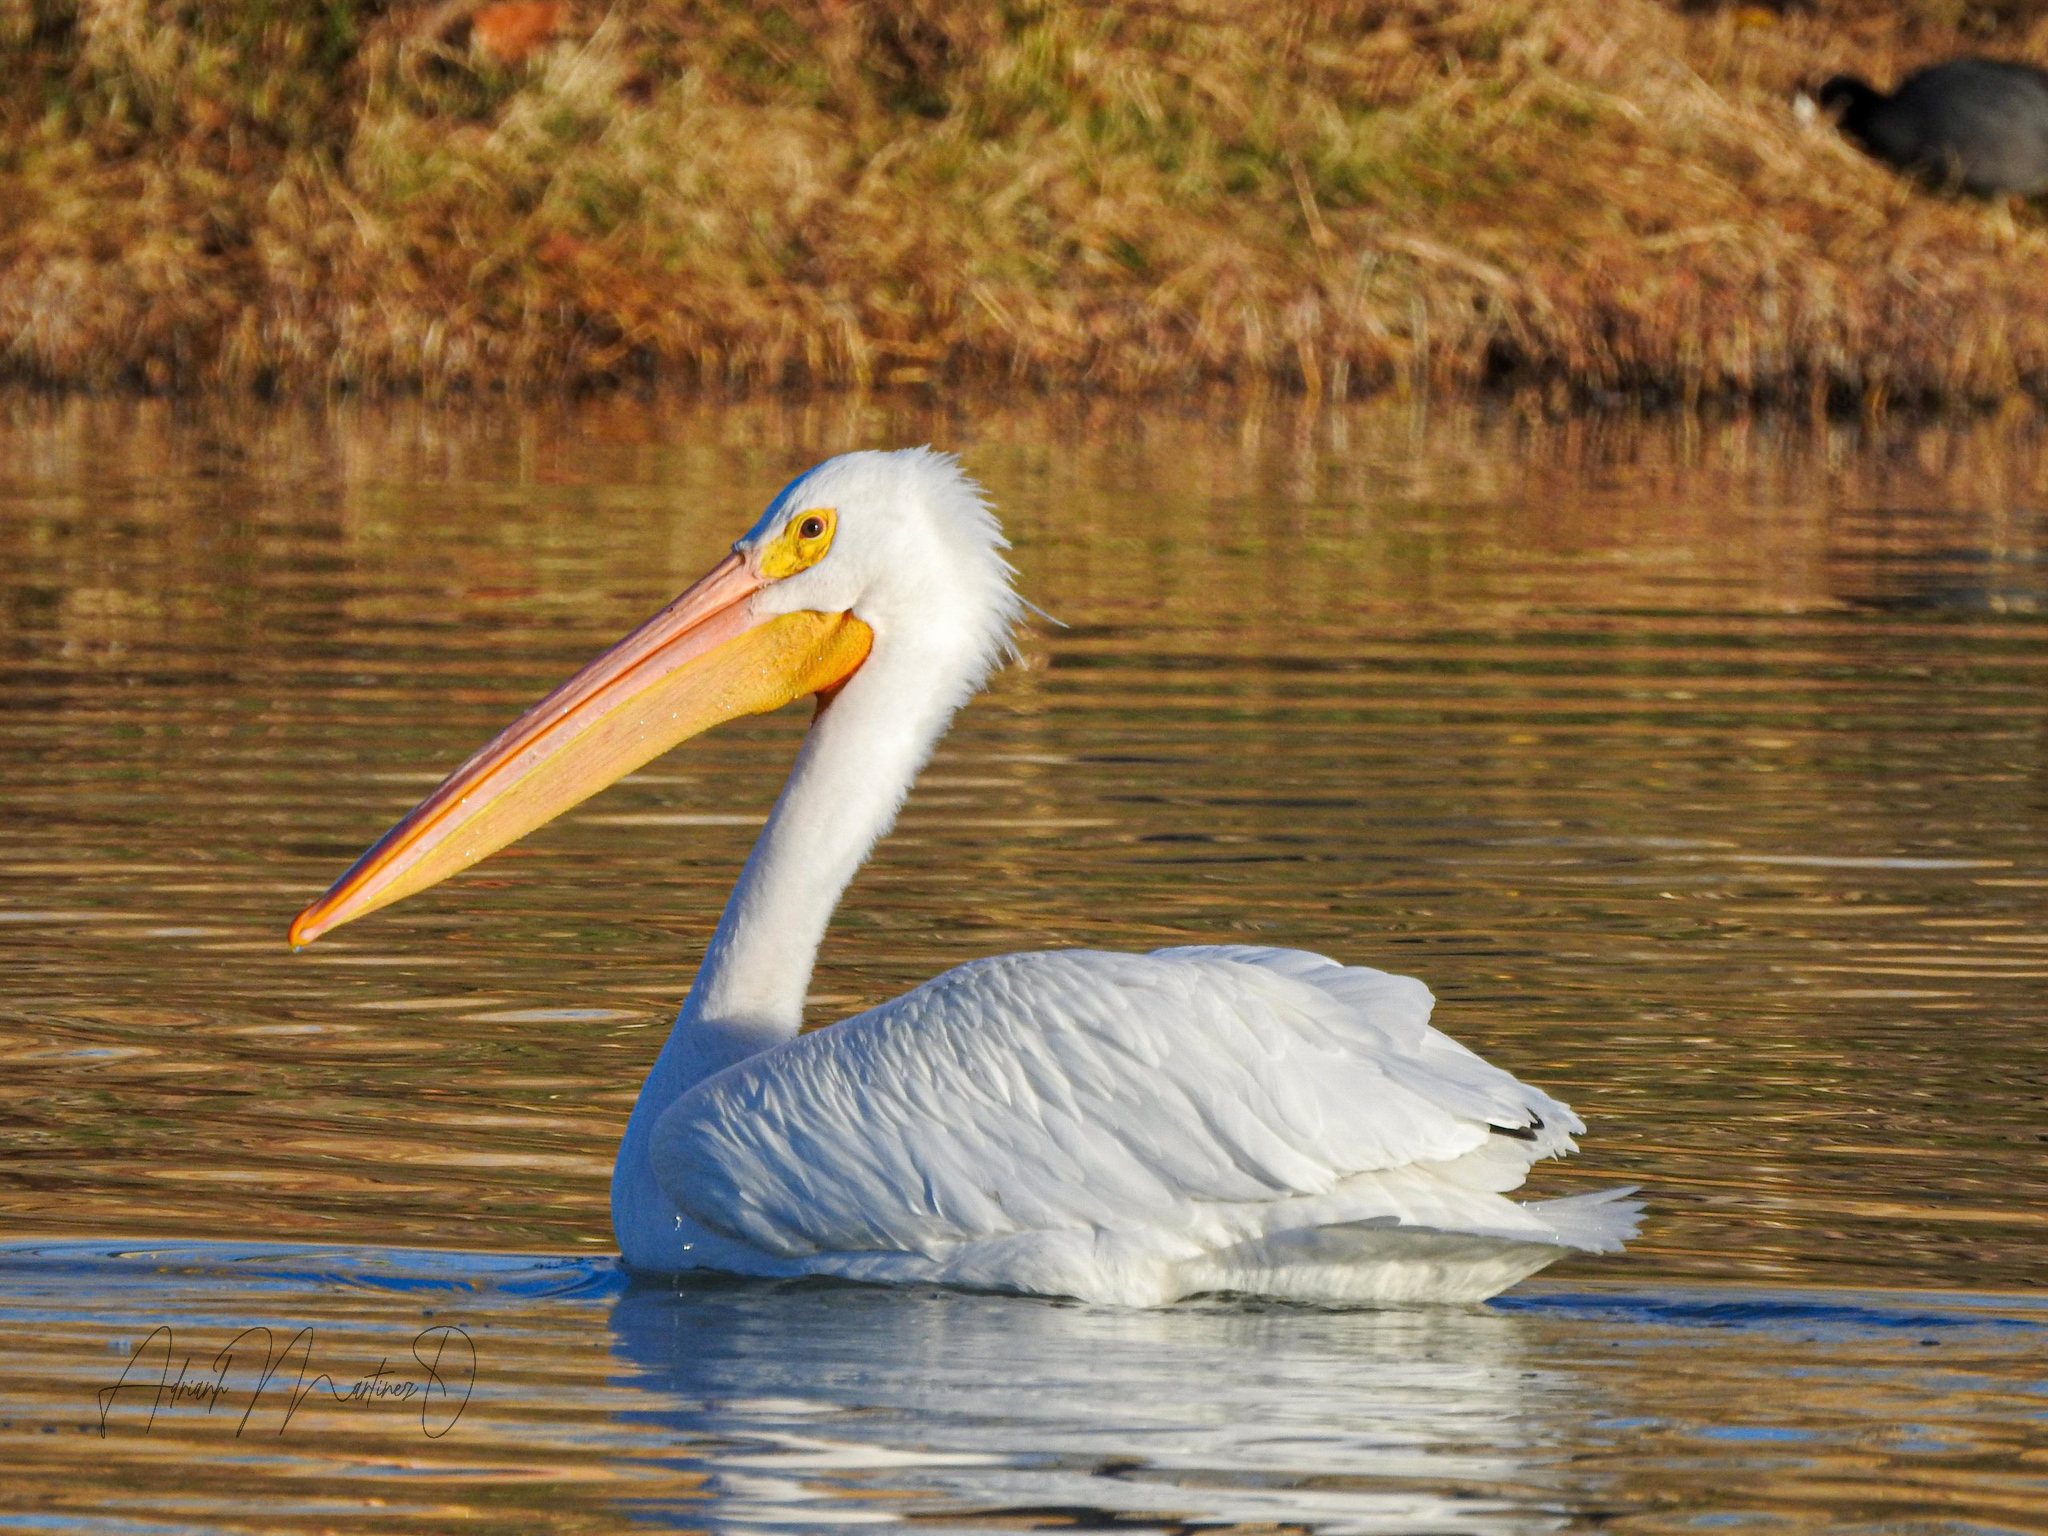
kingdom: Animalia
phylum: Chordata
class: Aves
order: Pelecaniformes
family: Pelecanidae
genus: Pelecanus
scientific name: Pelecanus erythrorhynchos
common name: American white pelican
